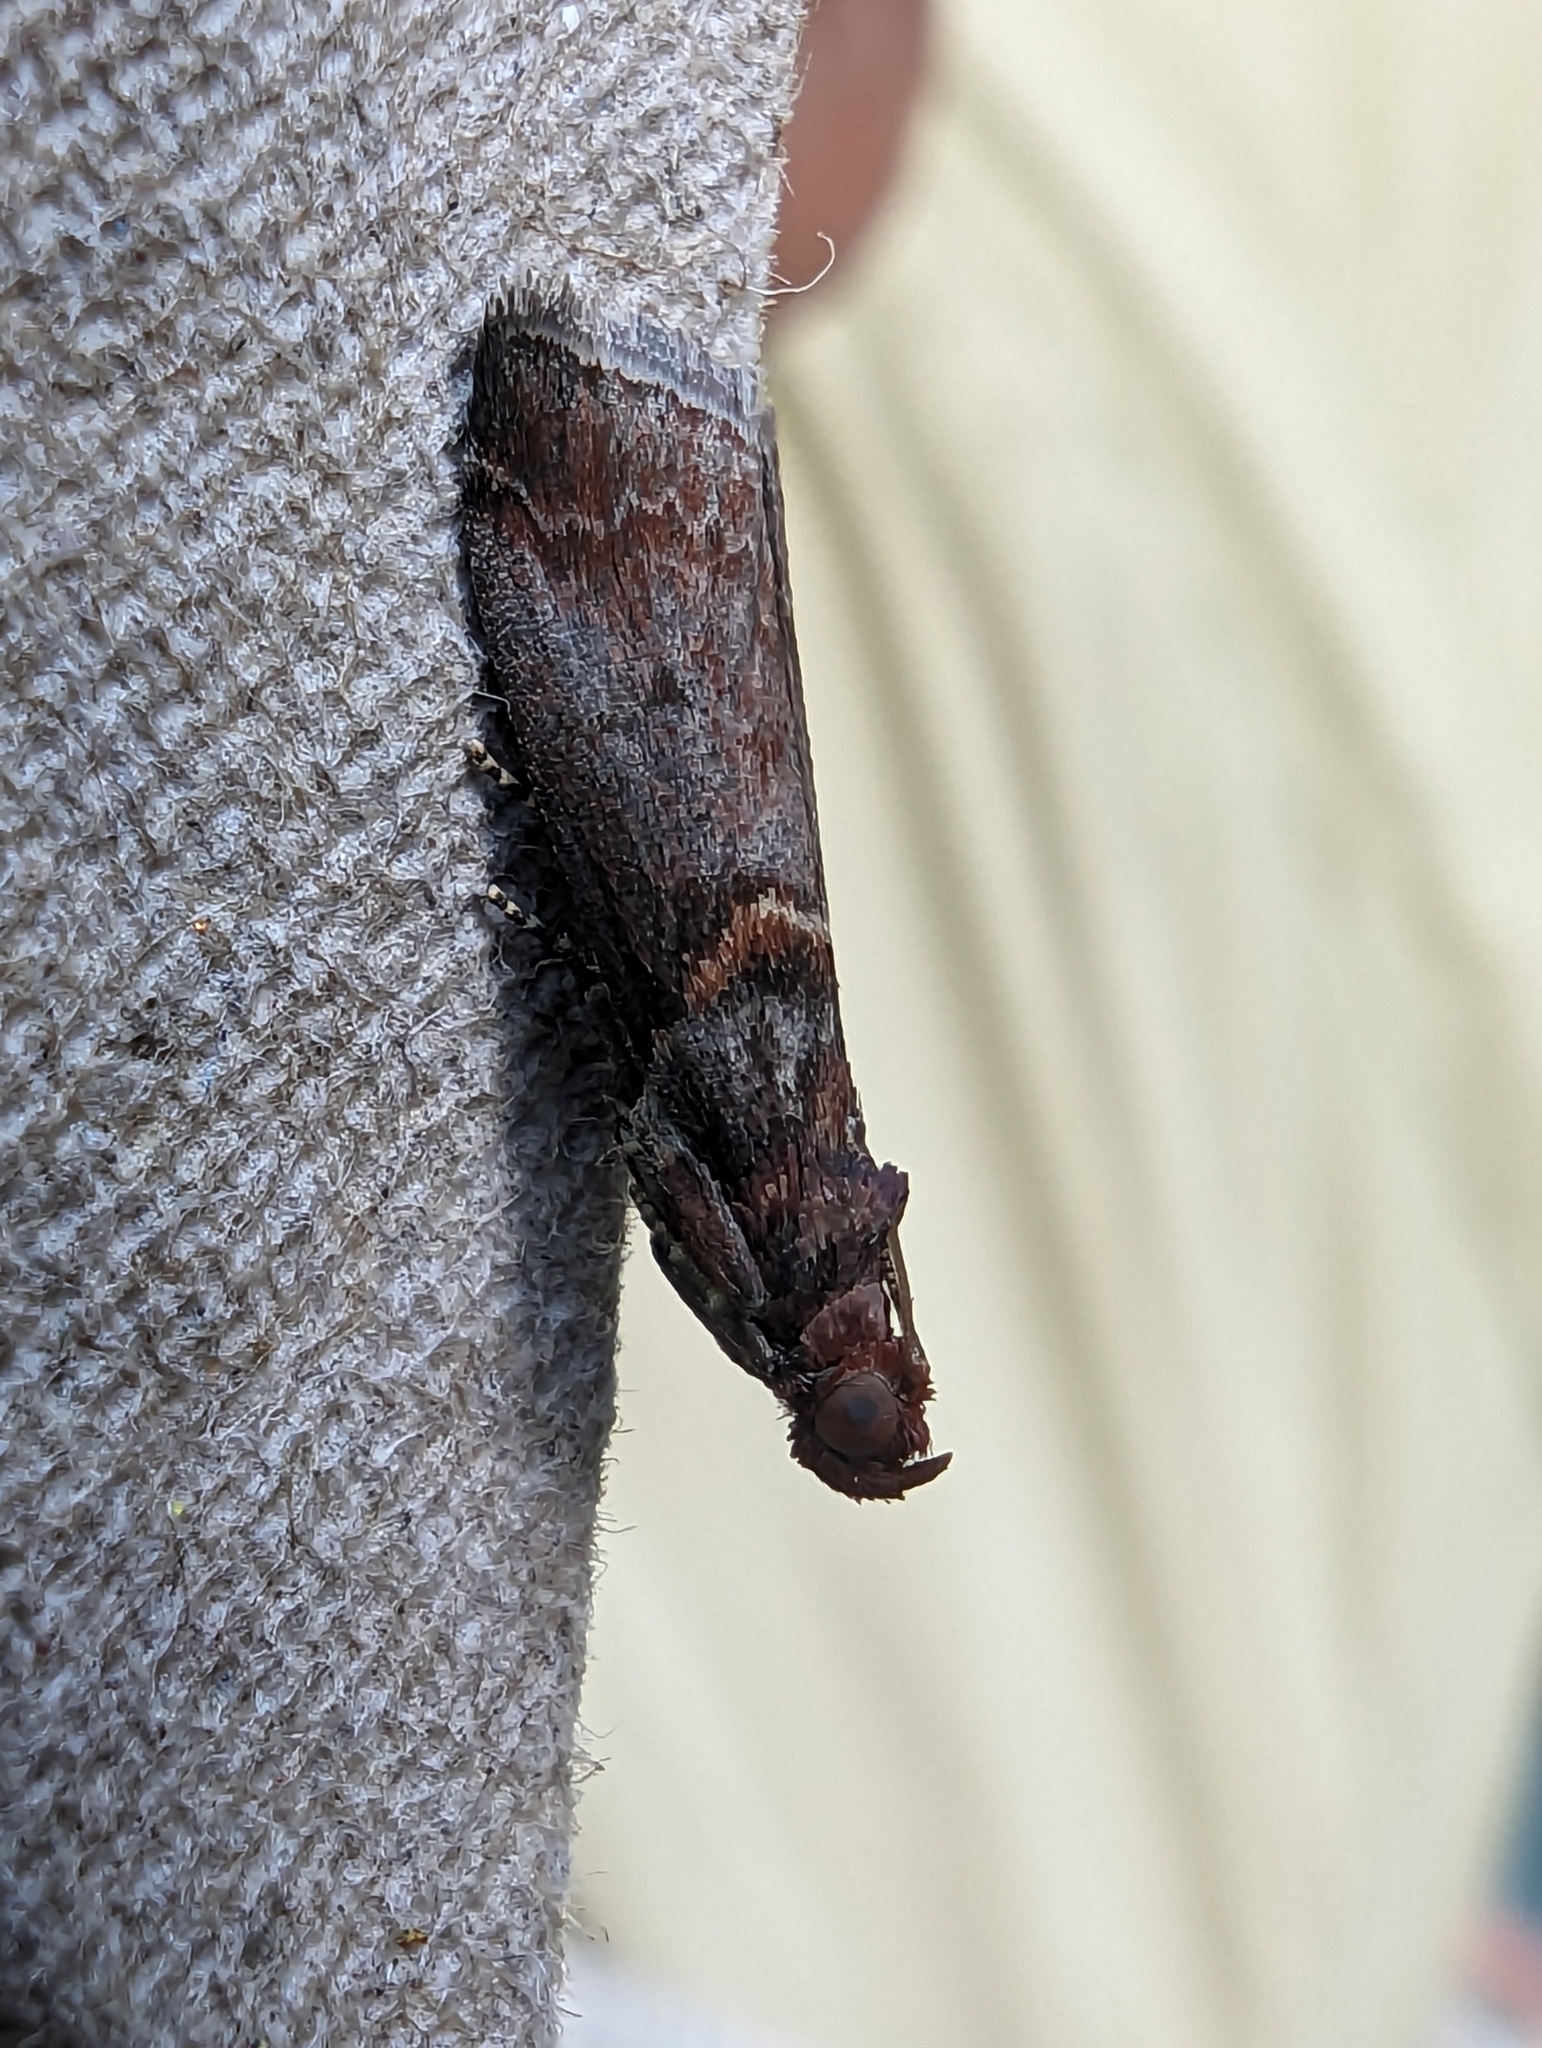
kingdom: Animalia
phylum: Arthropoda
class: Insecta
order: Lepidoptera
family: Pyralidae
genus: Acrobasis
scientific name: Acrobasis advenella
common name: Grey knot-horn
